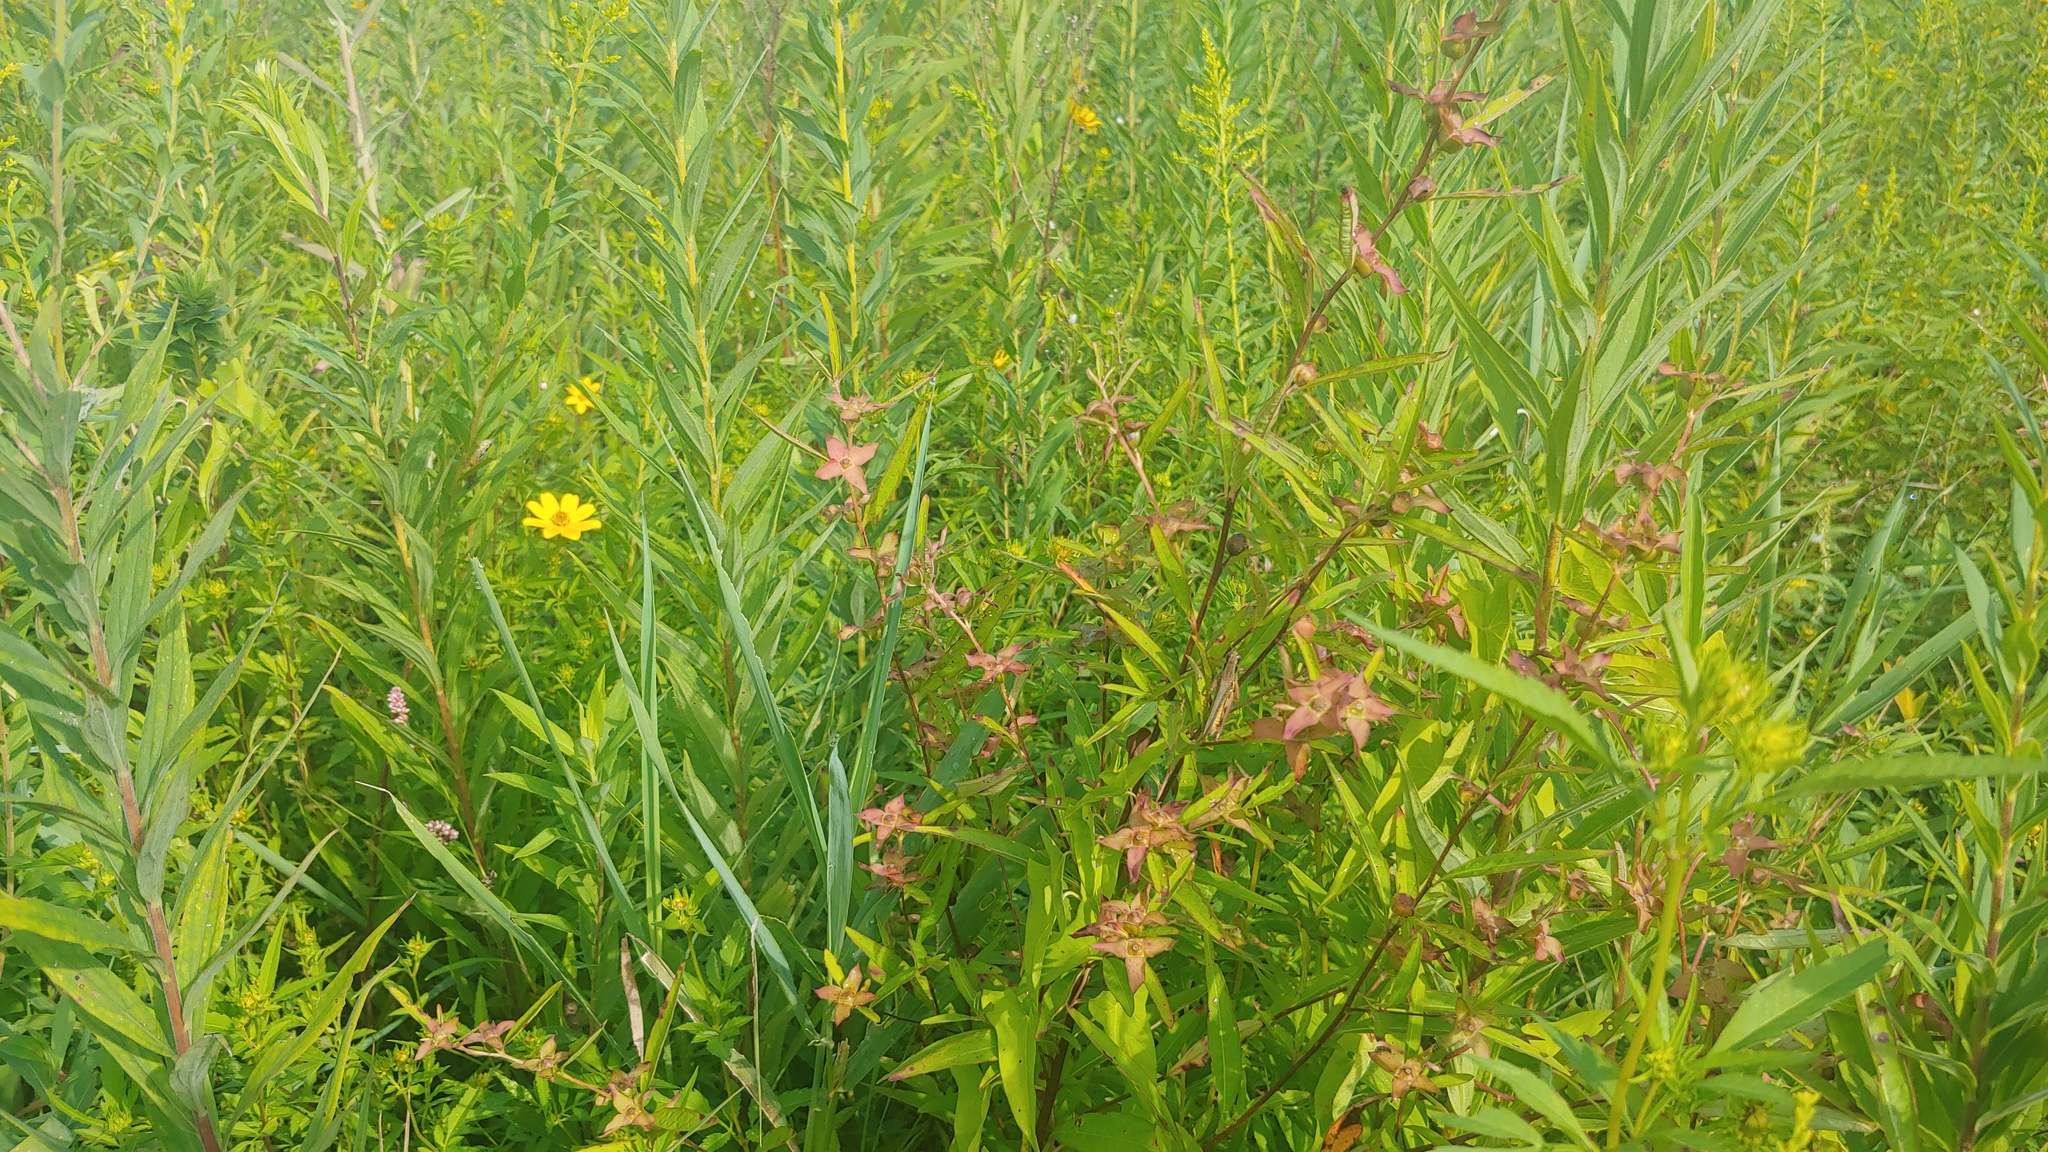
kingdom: Plantae
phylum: Tracheophyta
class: Magnoliopsida
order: Myrtales
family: Onagraceae
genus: Ludwigia
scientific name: Ludwigia alternifolia
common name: Rattlebox
